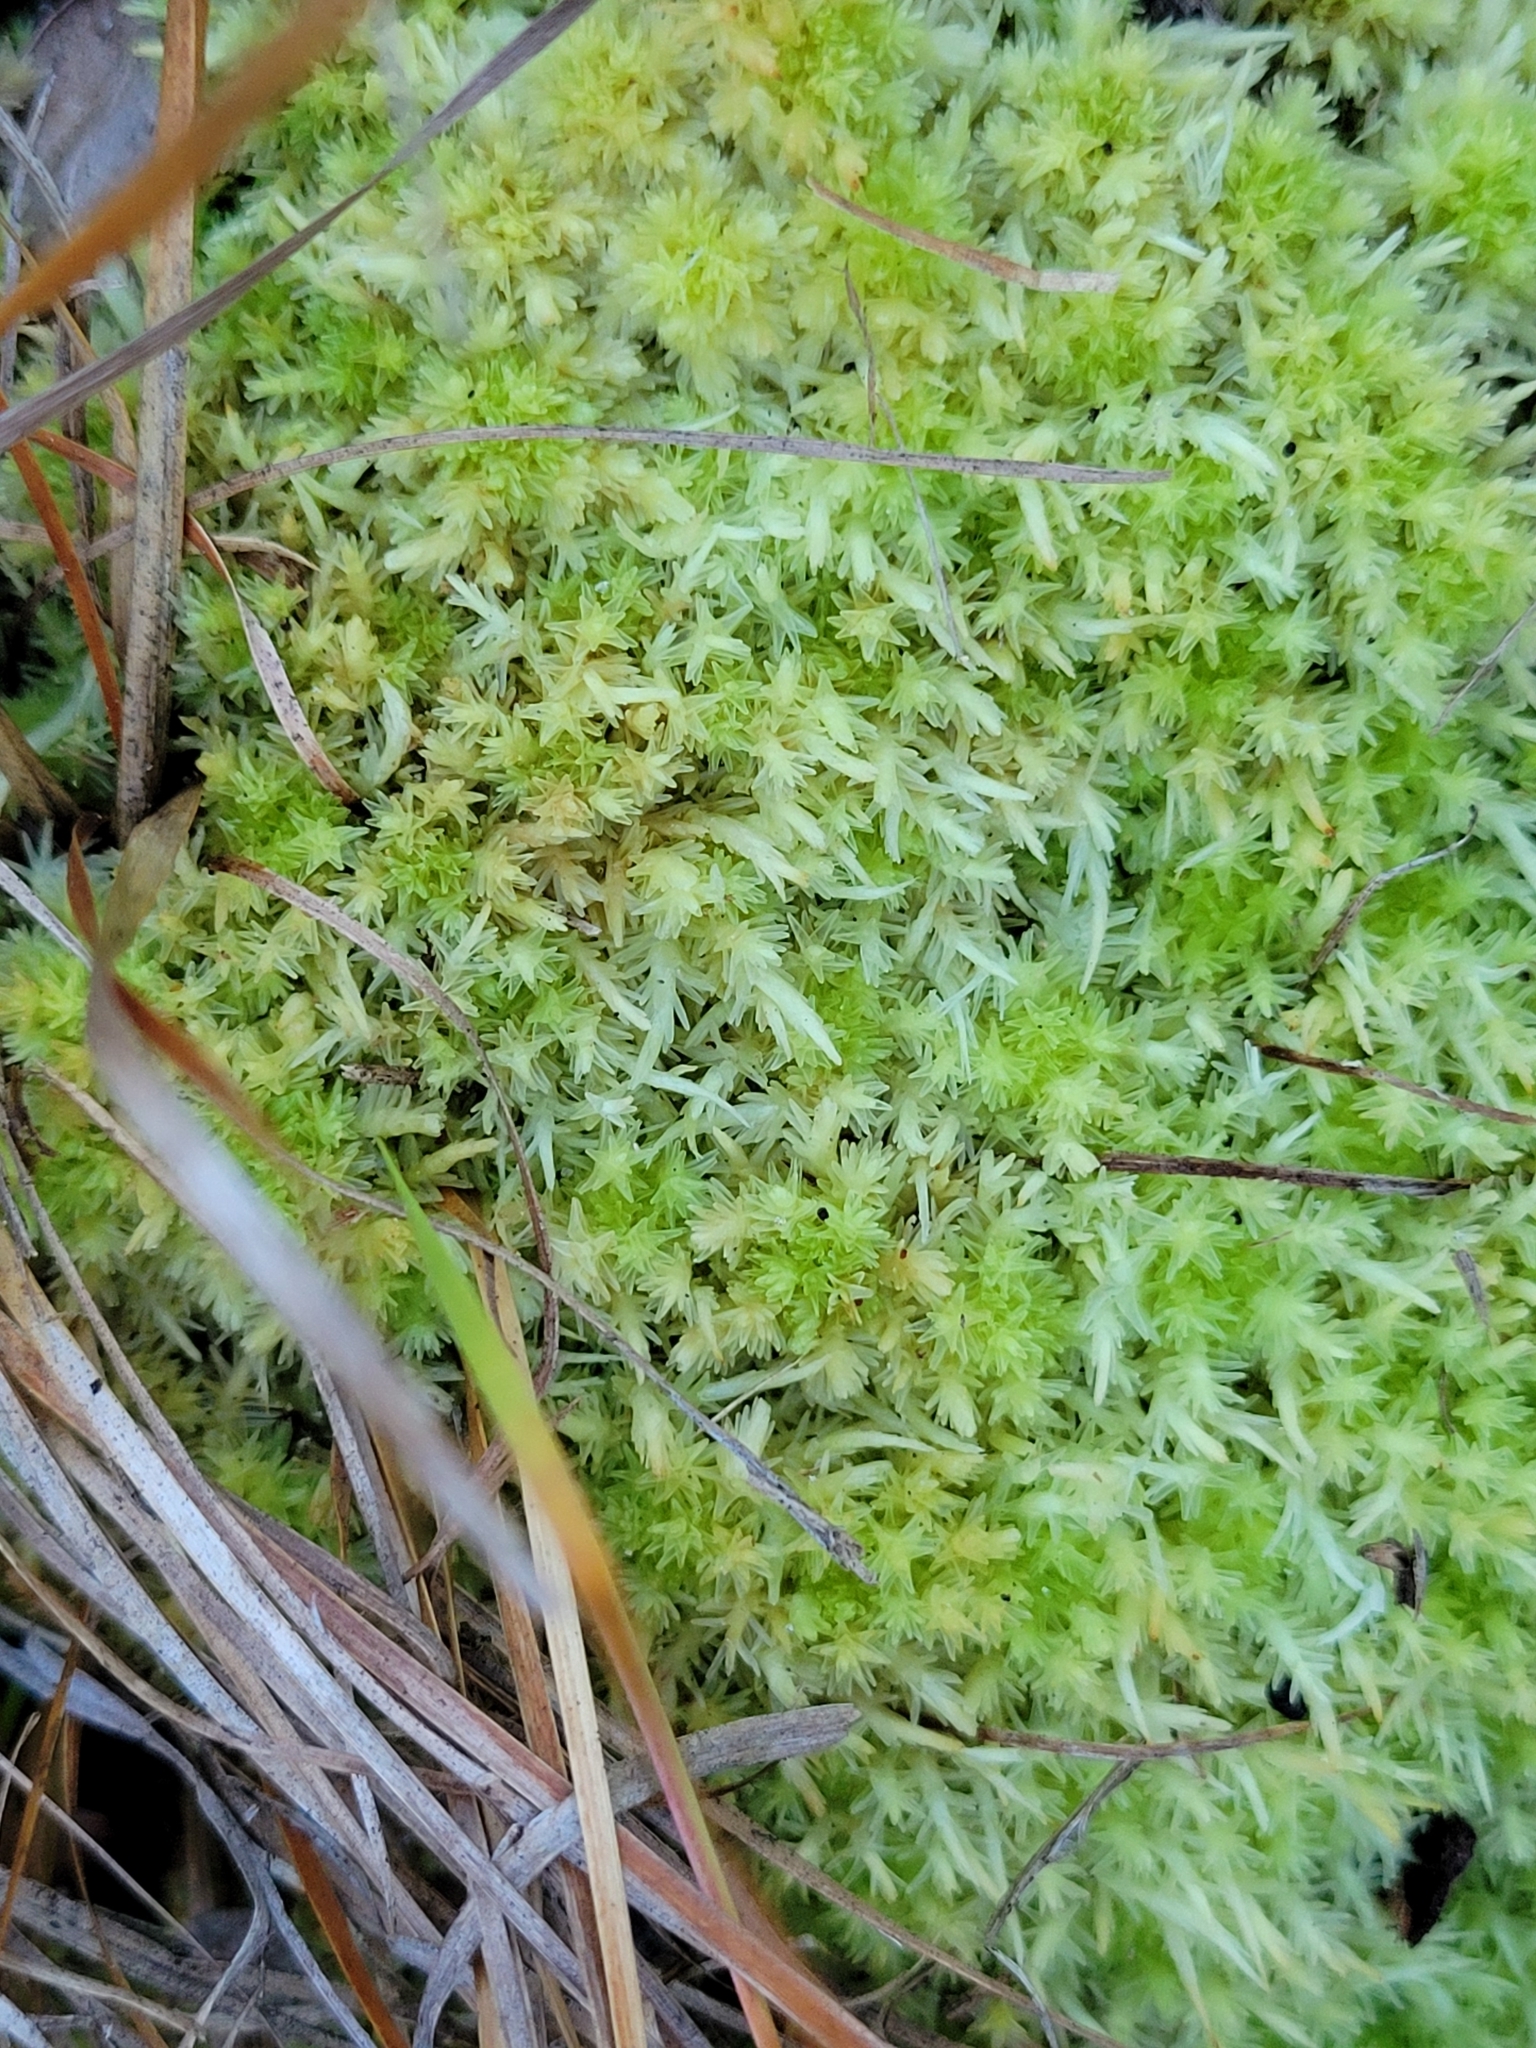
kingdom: Plantae
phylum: Bryophyta
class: Sphagnopsida
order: Sphagnales
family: Sphagnaceae
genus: Sphagnum
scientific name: Sphagnum strictum
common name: Pale bog-moss
